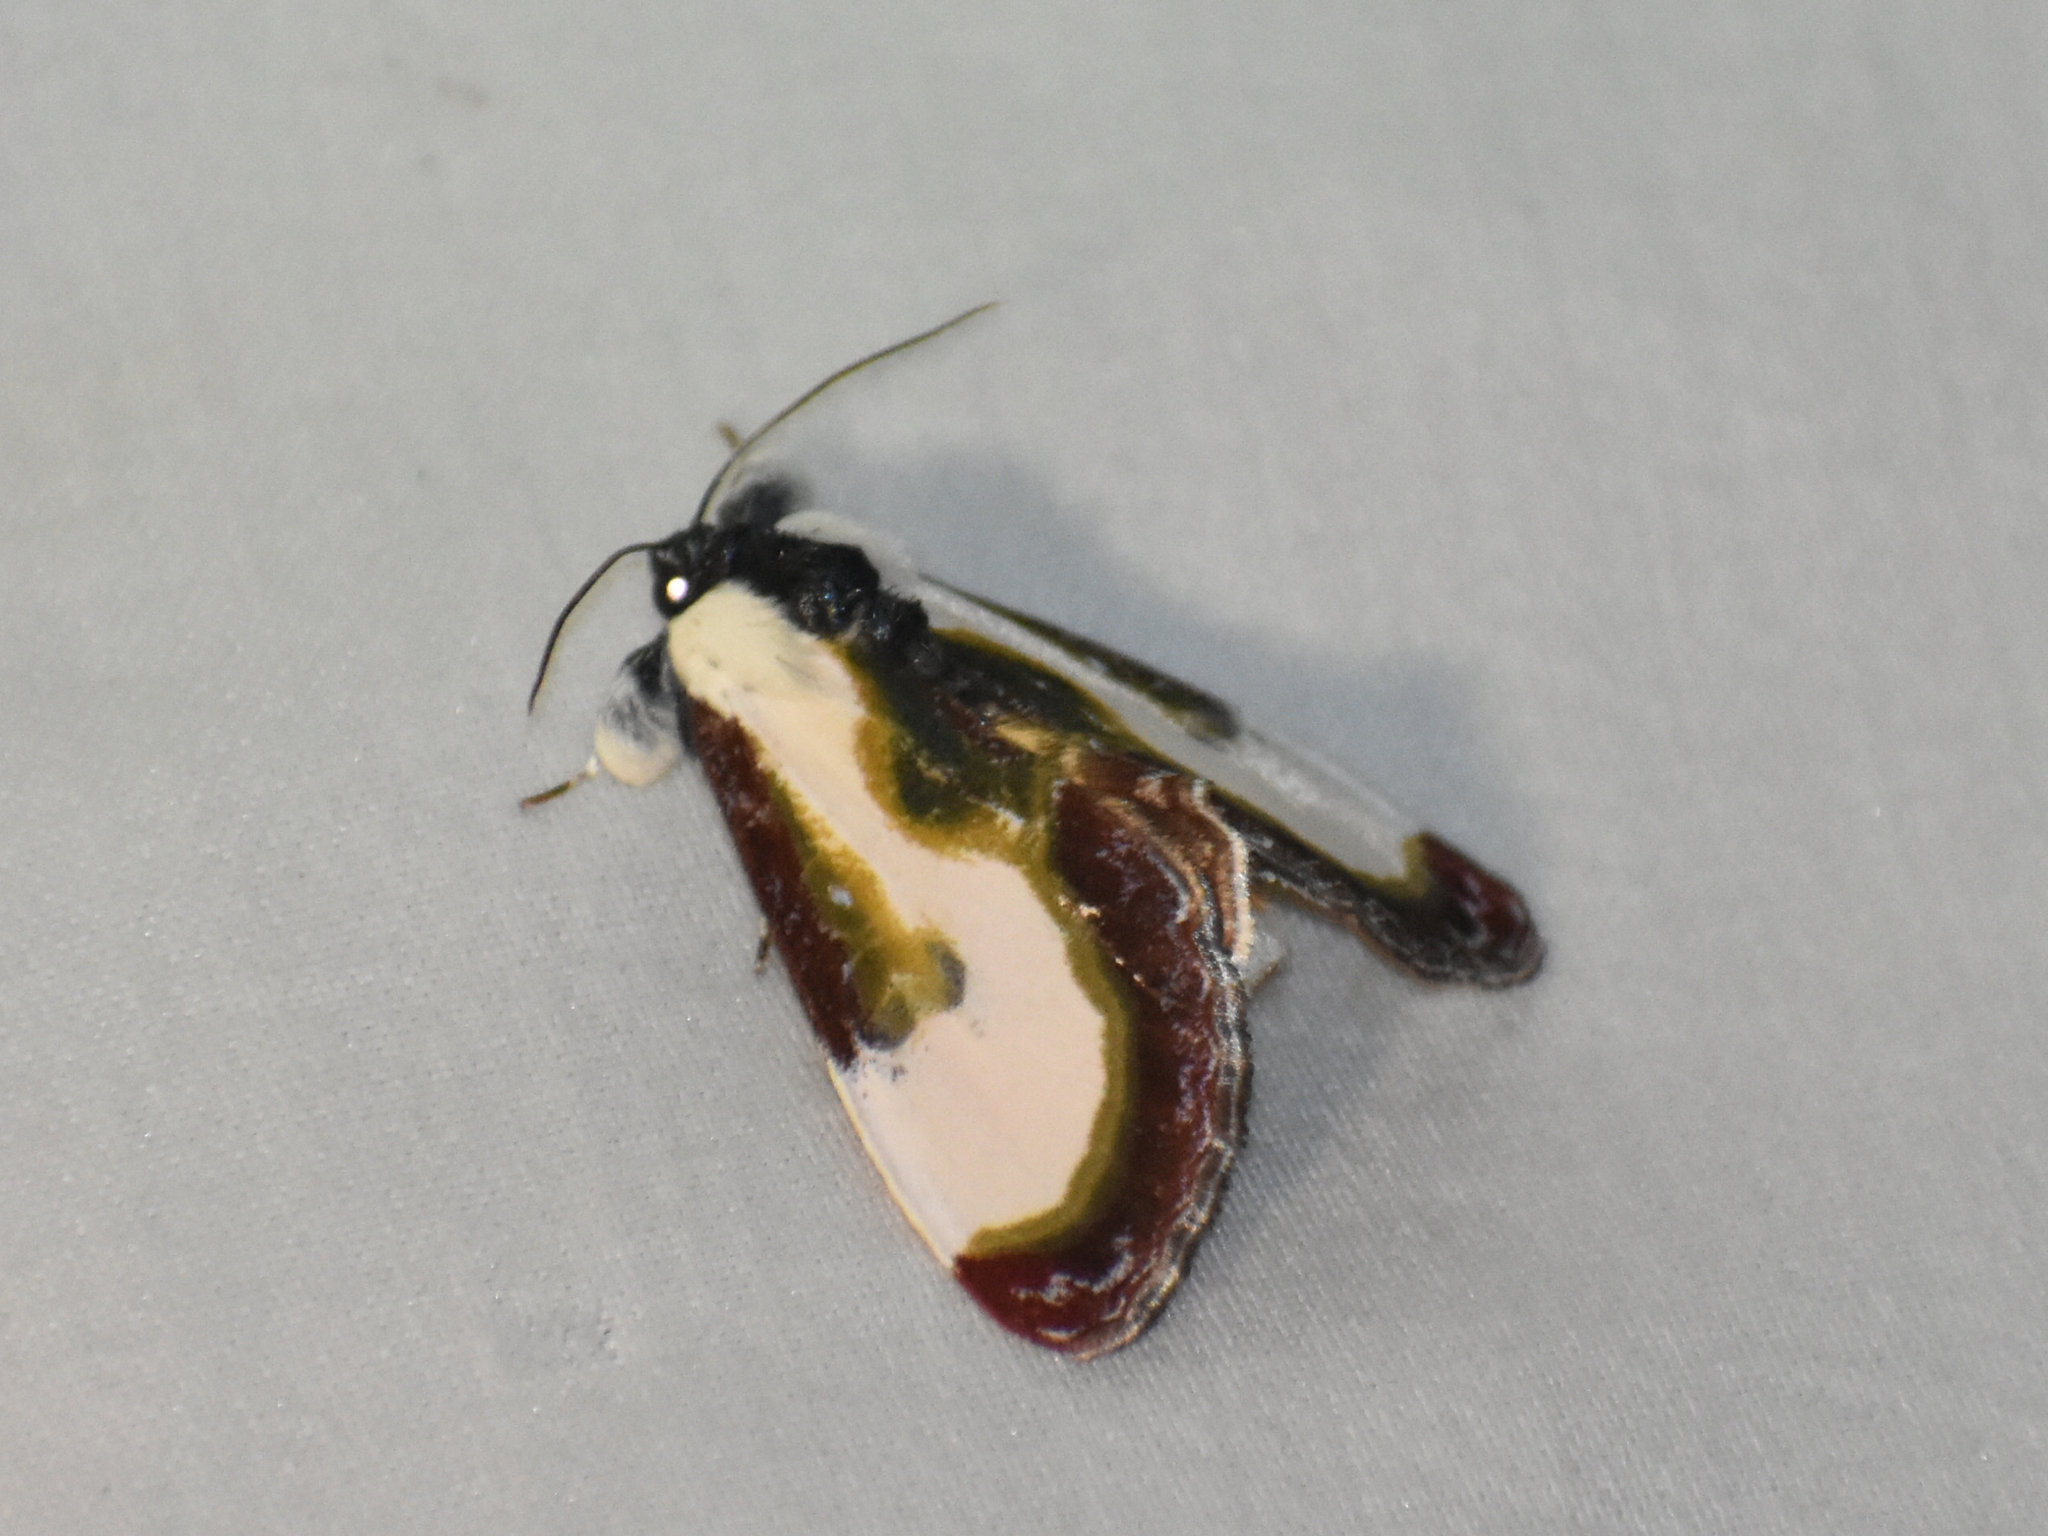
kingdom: Animalia
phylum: Arthropoda
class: Insecta
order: Lepidoptera
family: Noctuidae
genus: Eudryas
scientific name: Eudryas grata
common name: Beautiful wood-nymph
